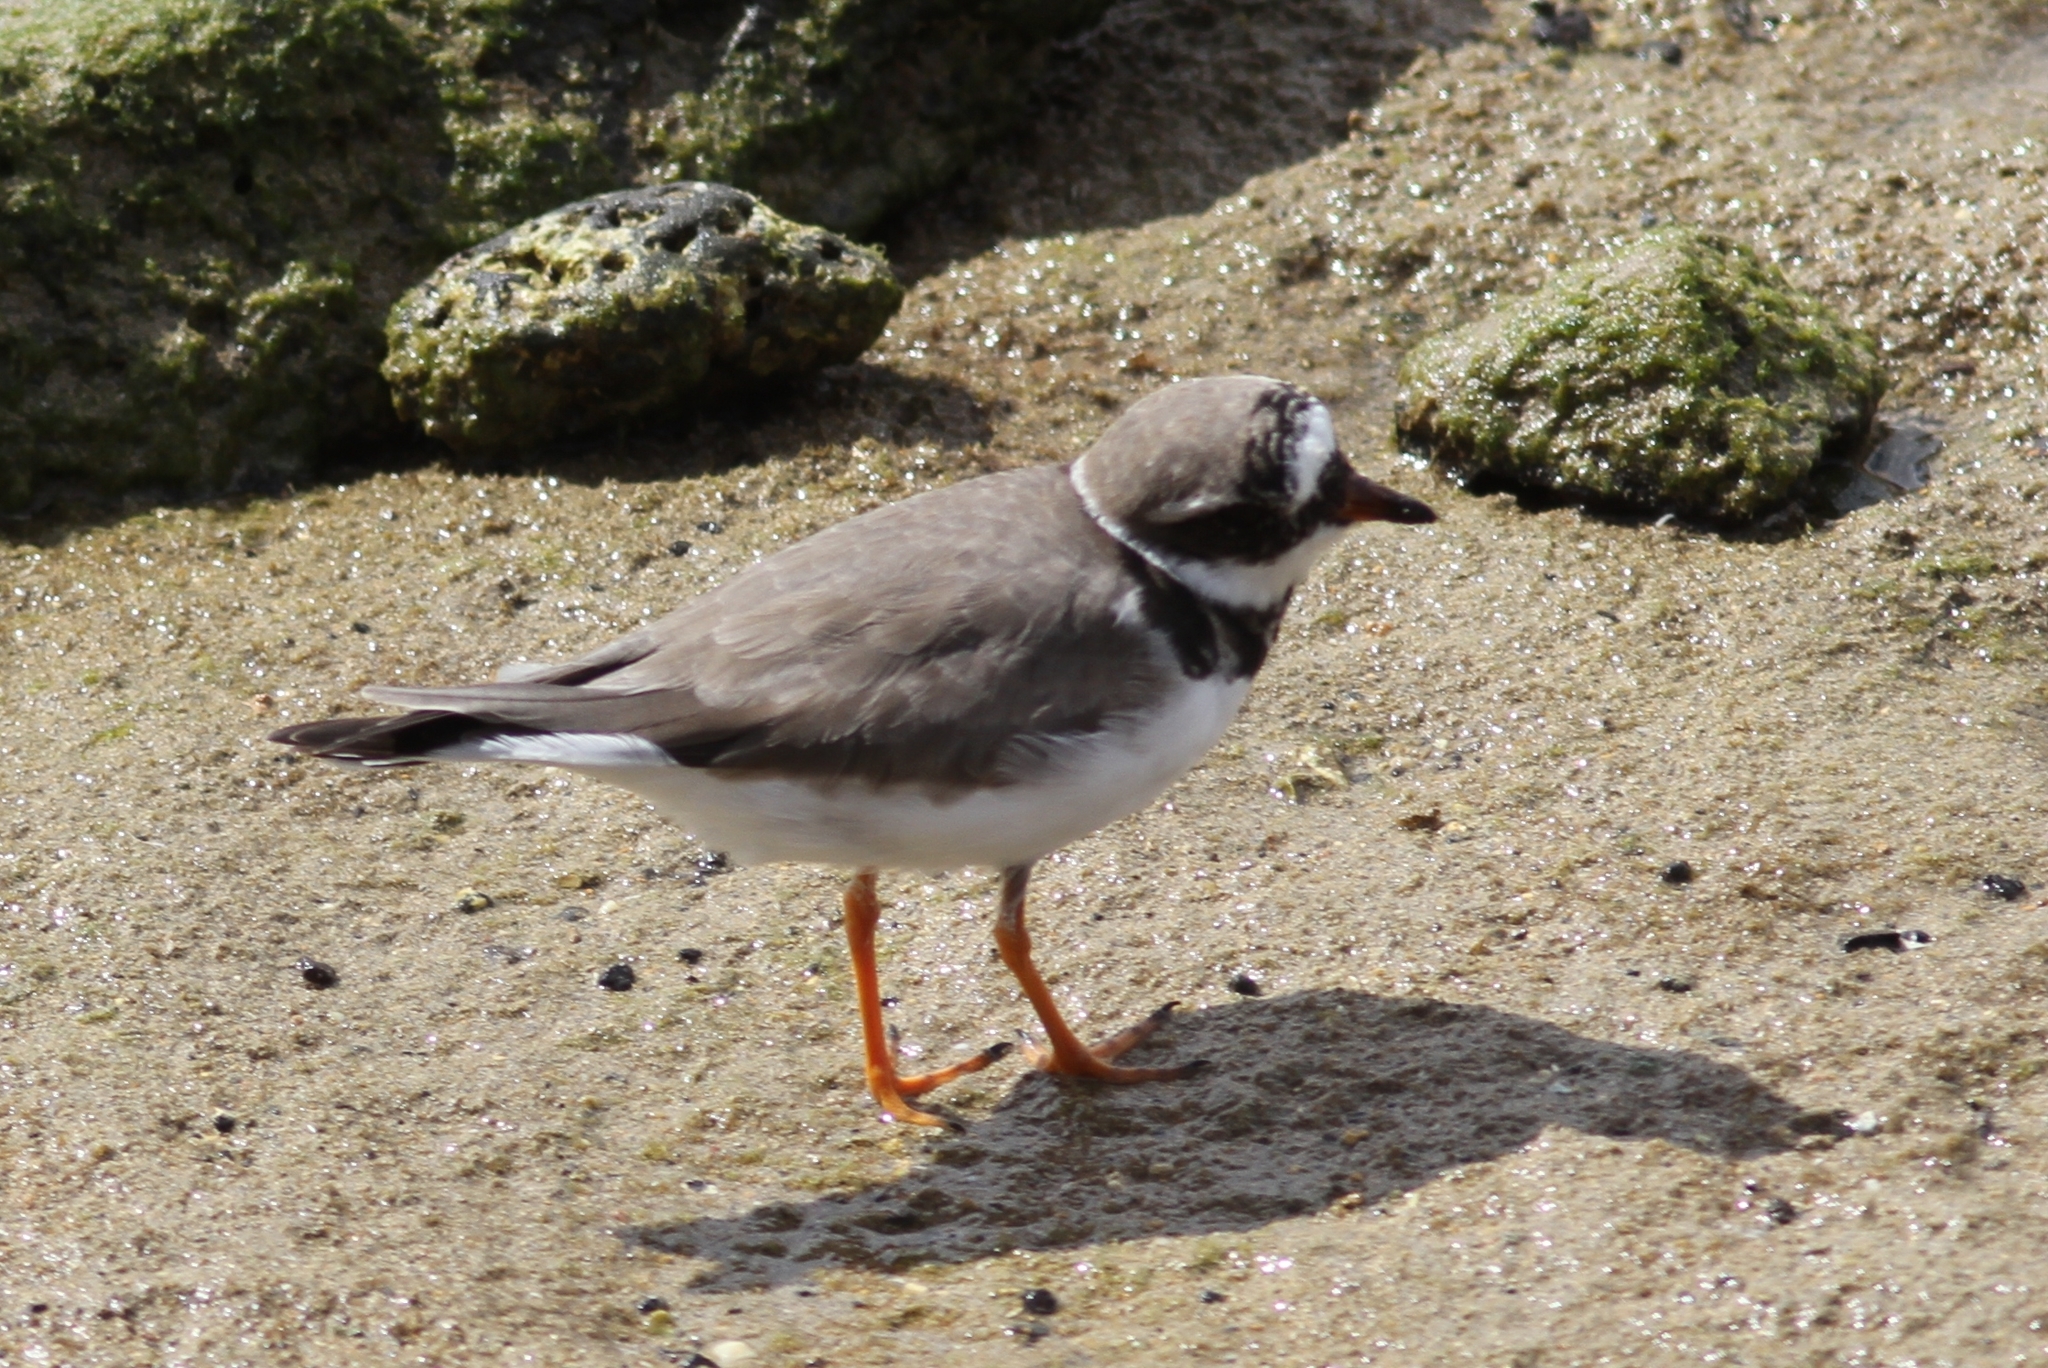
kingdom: Animalia
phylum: Chordata
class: Aves
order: Charadriiformes
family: Charadriidae
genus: Charadrius
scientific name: Charadrius hiaticula
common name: Common ringed plover
